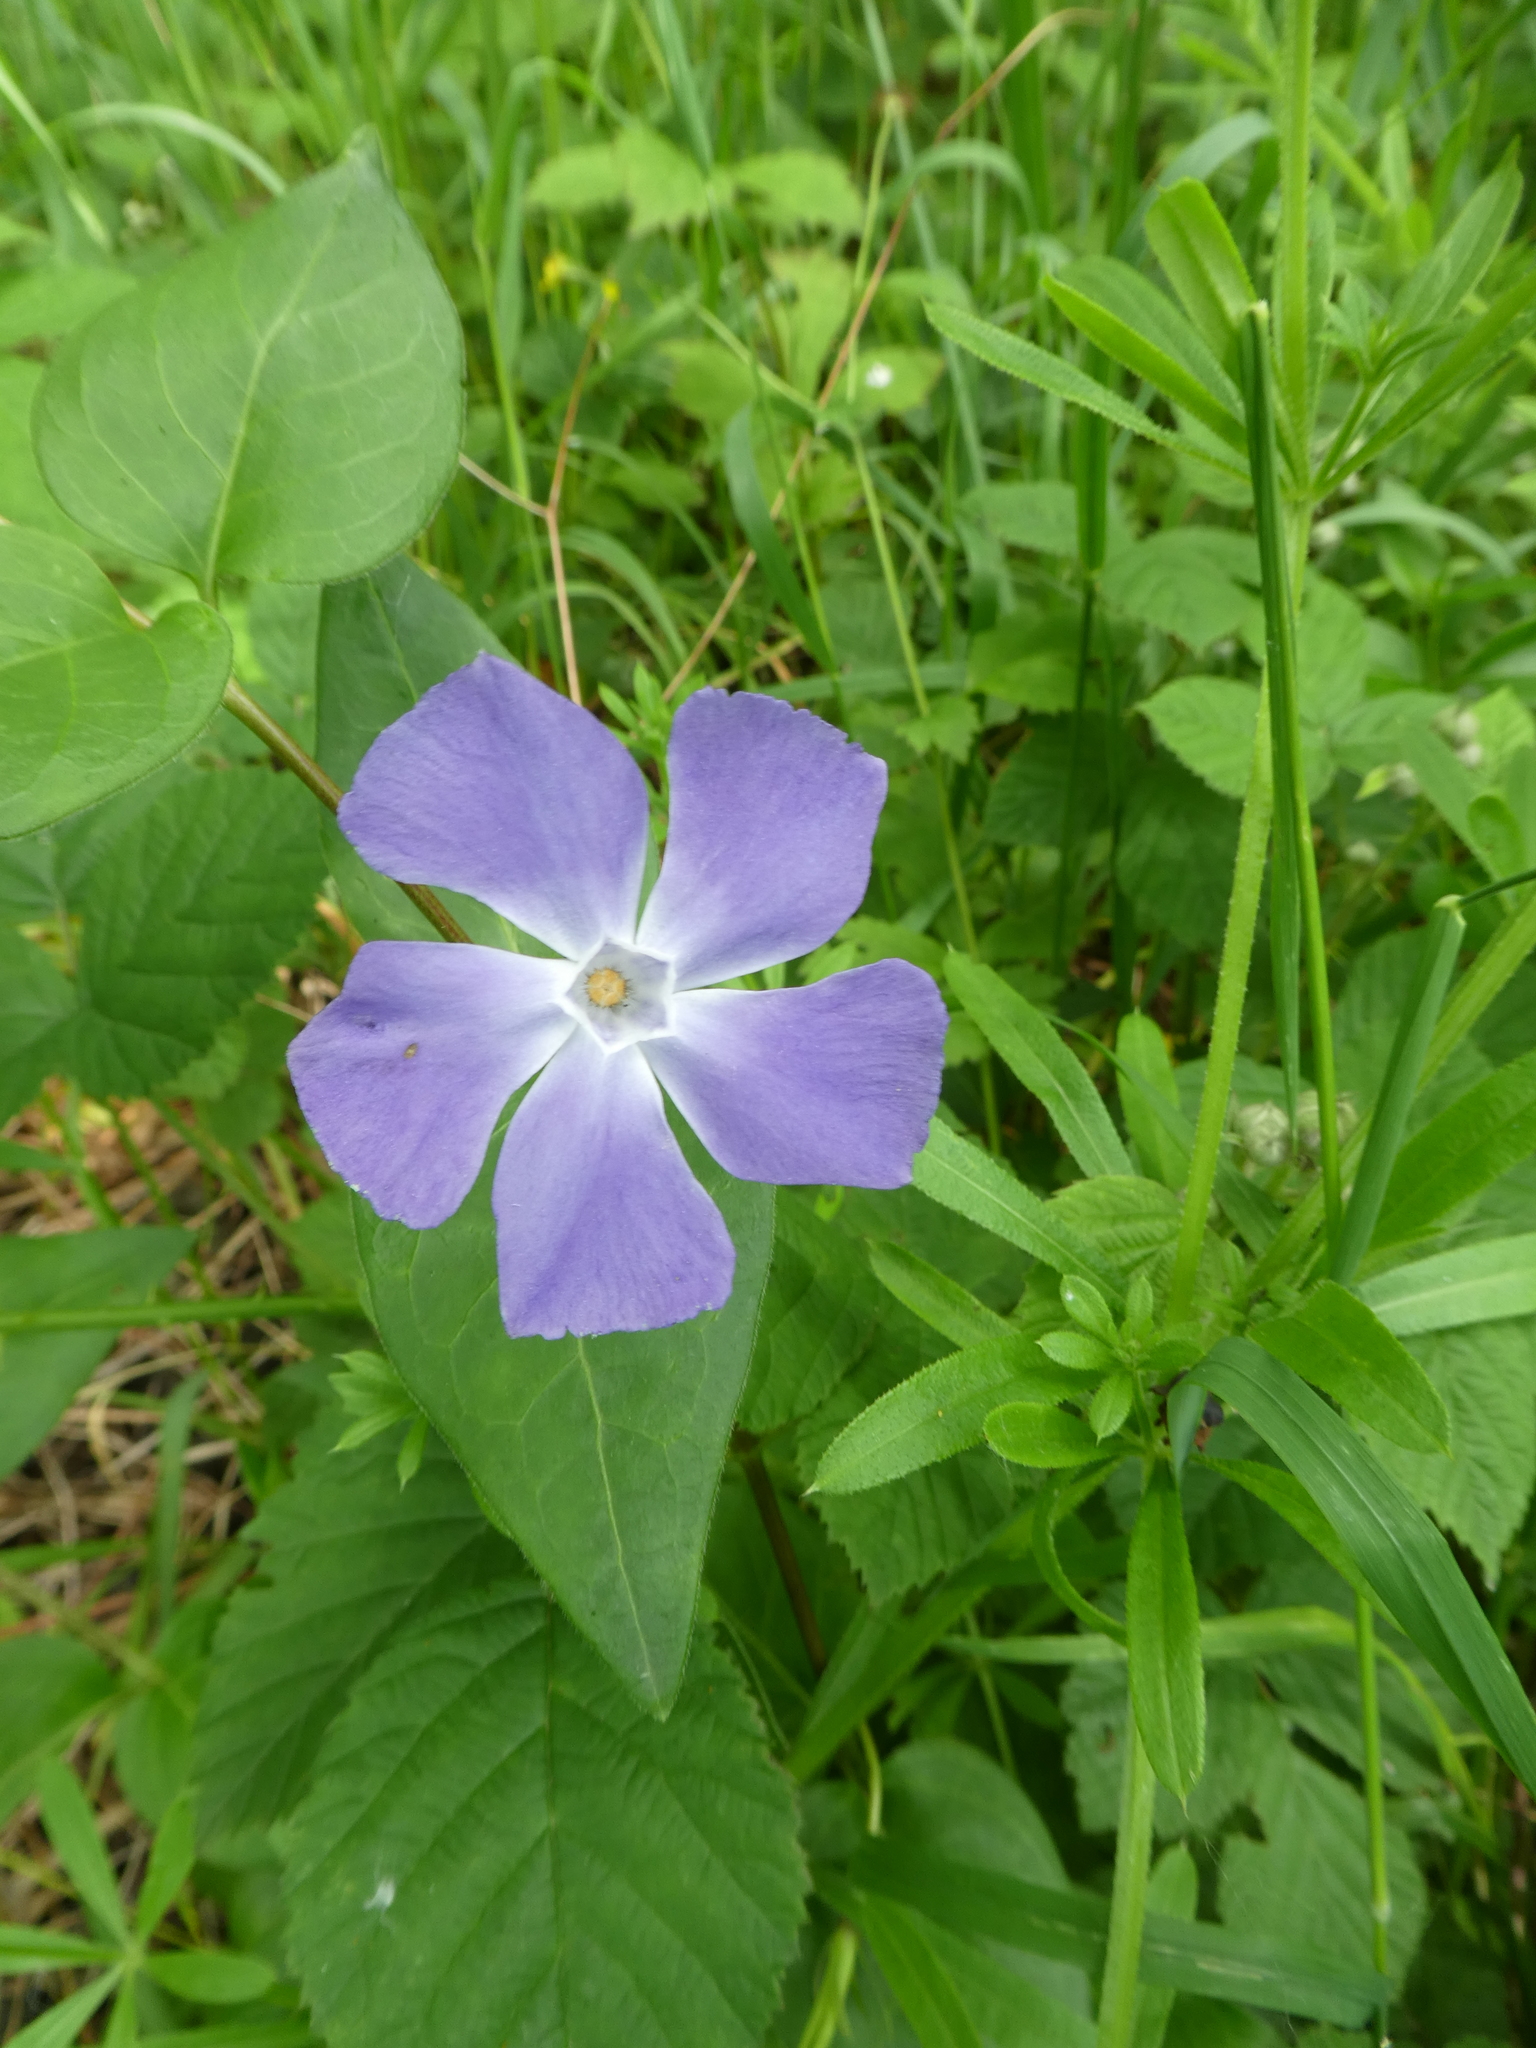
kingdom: Plantae
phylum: Tracheophyta
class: Magnoliopsida
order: Gentianales
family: Apocynaceae
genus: Vinca
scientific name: Vinca major
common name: Greater periwinkle
